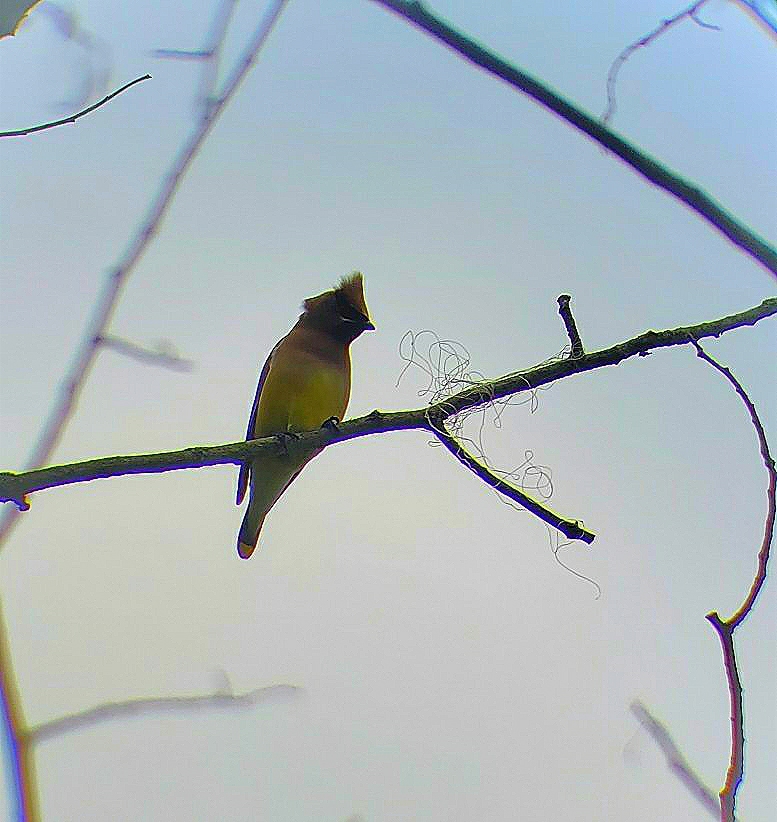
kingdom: Animalia
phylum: Chordata
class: Aves
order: Passeriformes
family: Bombycillidae
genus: Bombycilla
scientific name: Bombycilla cedrorum
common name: Cedar waxwing
